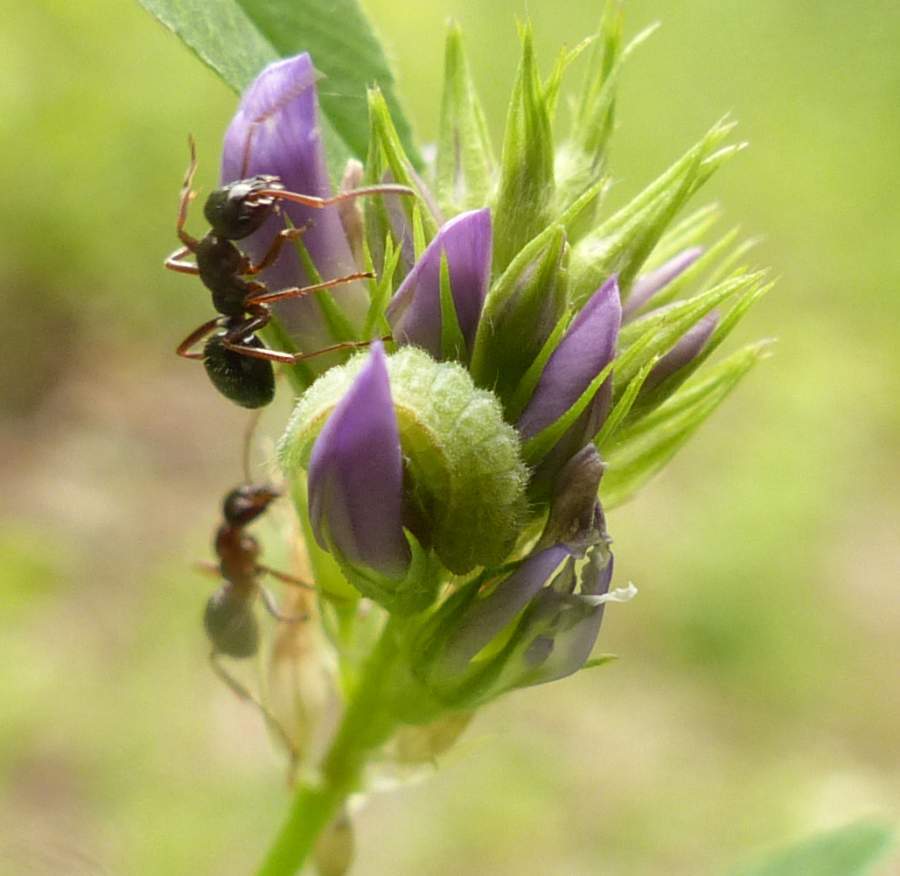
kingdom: Animalia
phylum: Arthropoda
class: Insecta
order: Lepidoptera
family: Lycaenidae
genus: Glaucopsyche
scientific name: Glaucopsyche lygdamus
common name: Silvery blue
